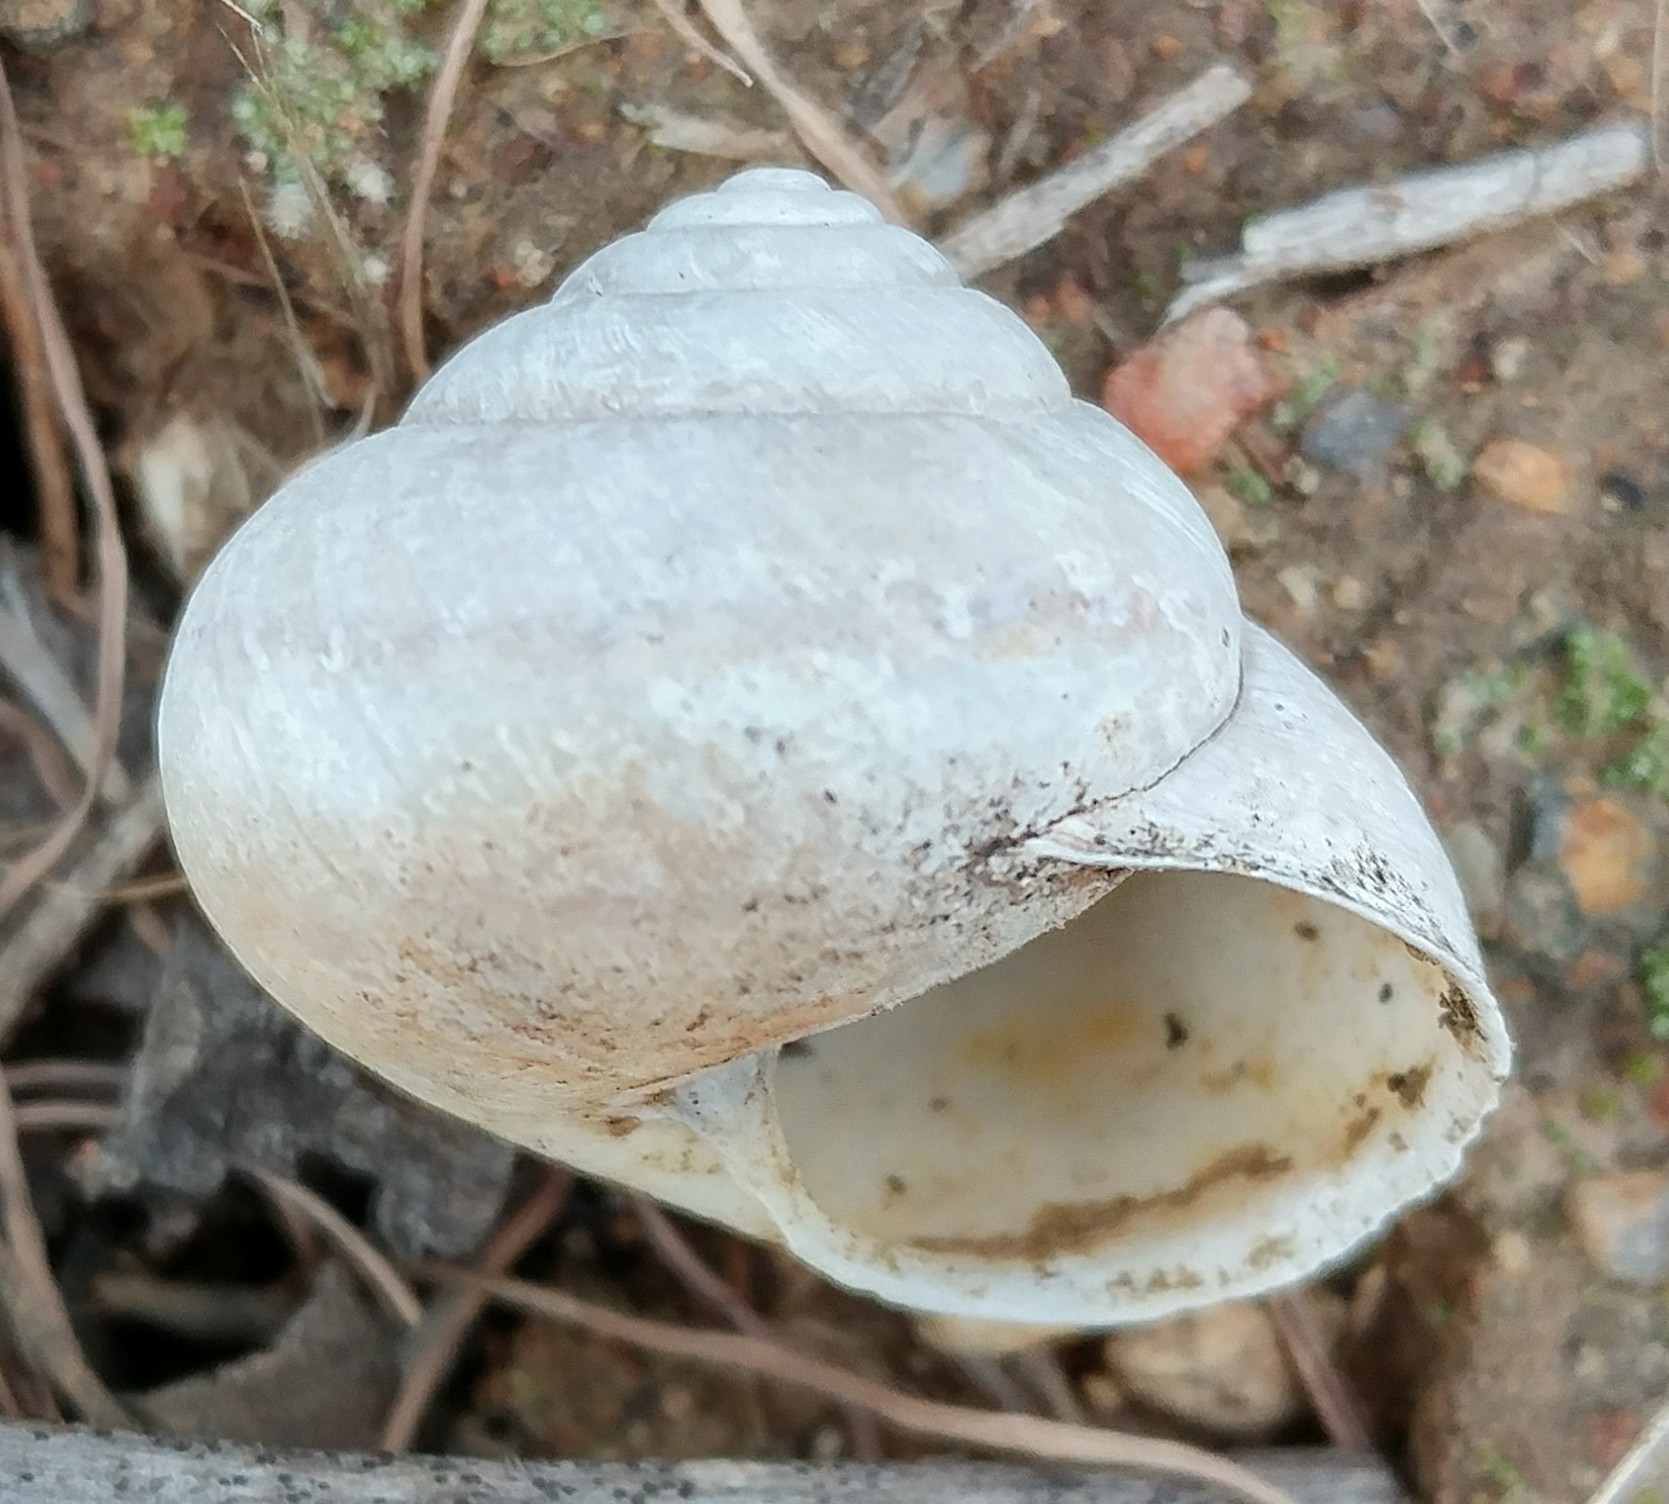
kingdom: Animalia
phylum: Mollusca
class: Gastropoda
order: Stylommatophora
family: Xanthonychidae
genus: Xerarionta
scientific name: Xerarionta stearnsiana
